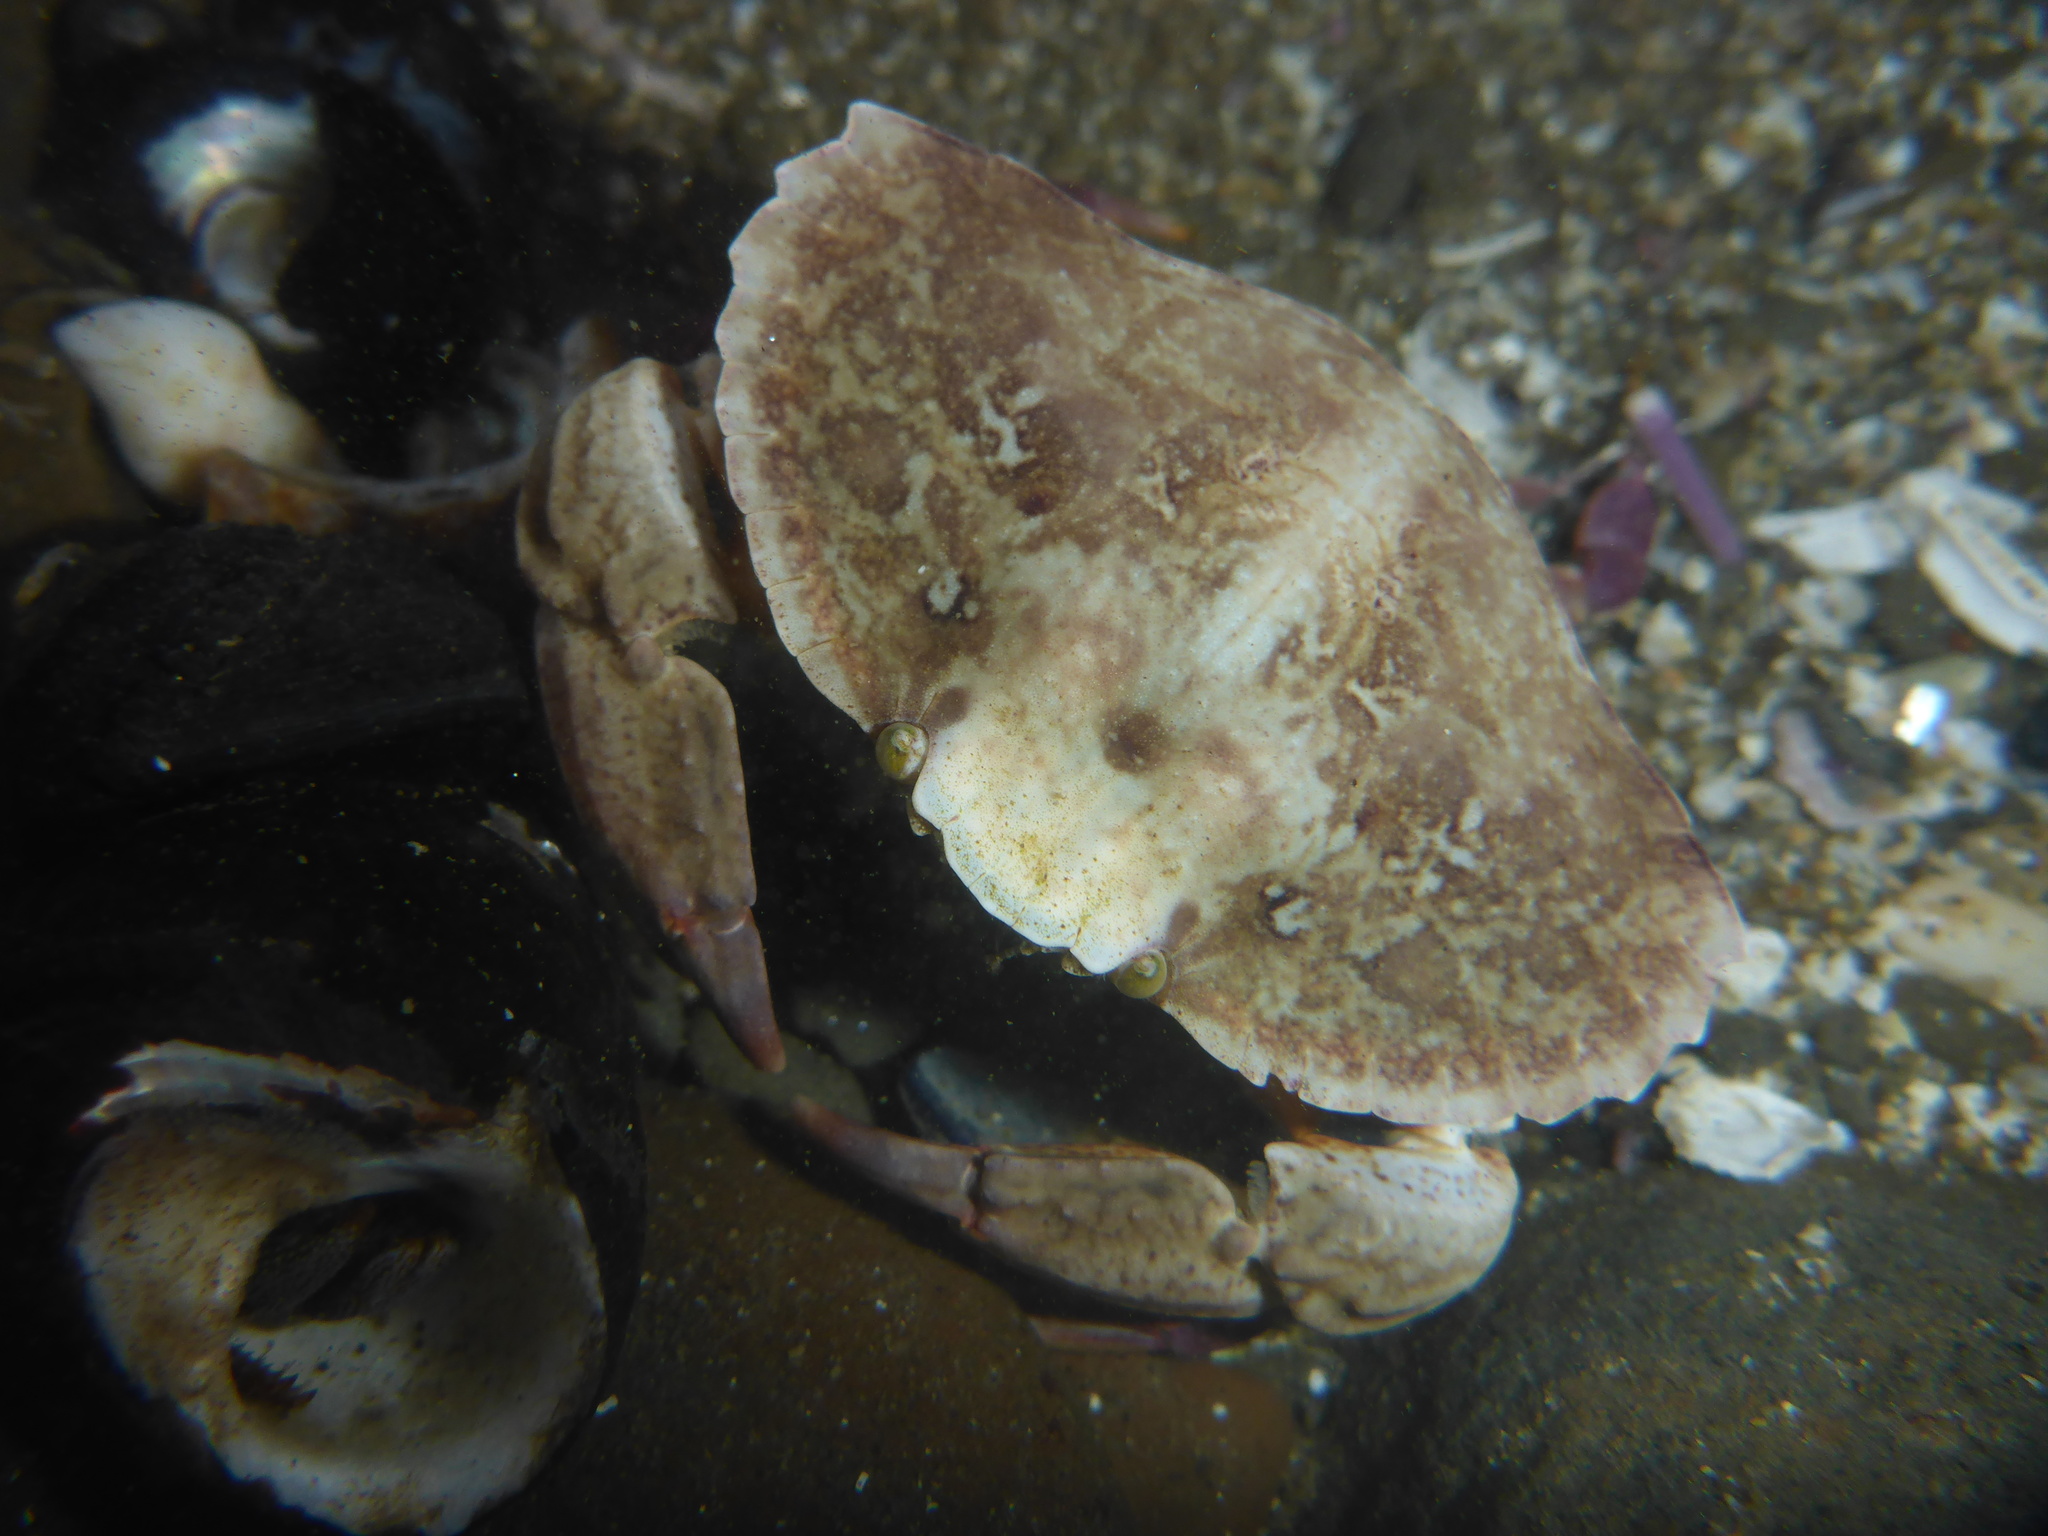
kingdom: Animalia
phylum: Arthropoda
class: Malacostraca
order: Decapoda
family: Cancridae
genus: Cancer
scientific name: Cancer productus
